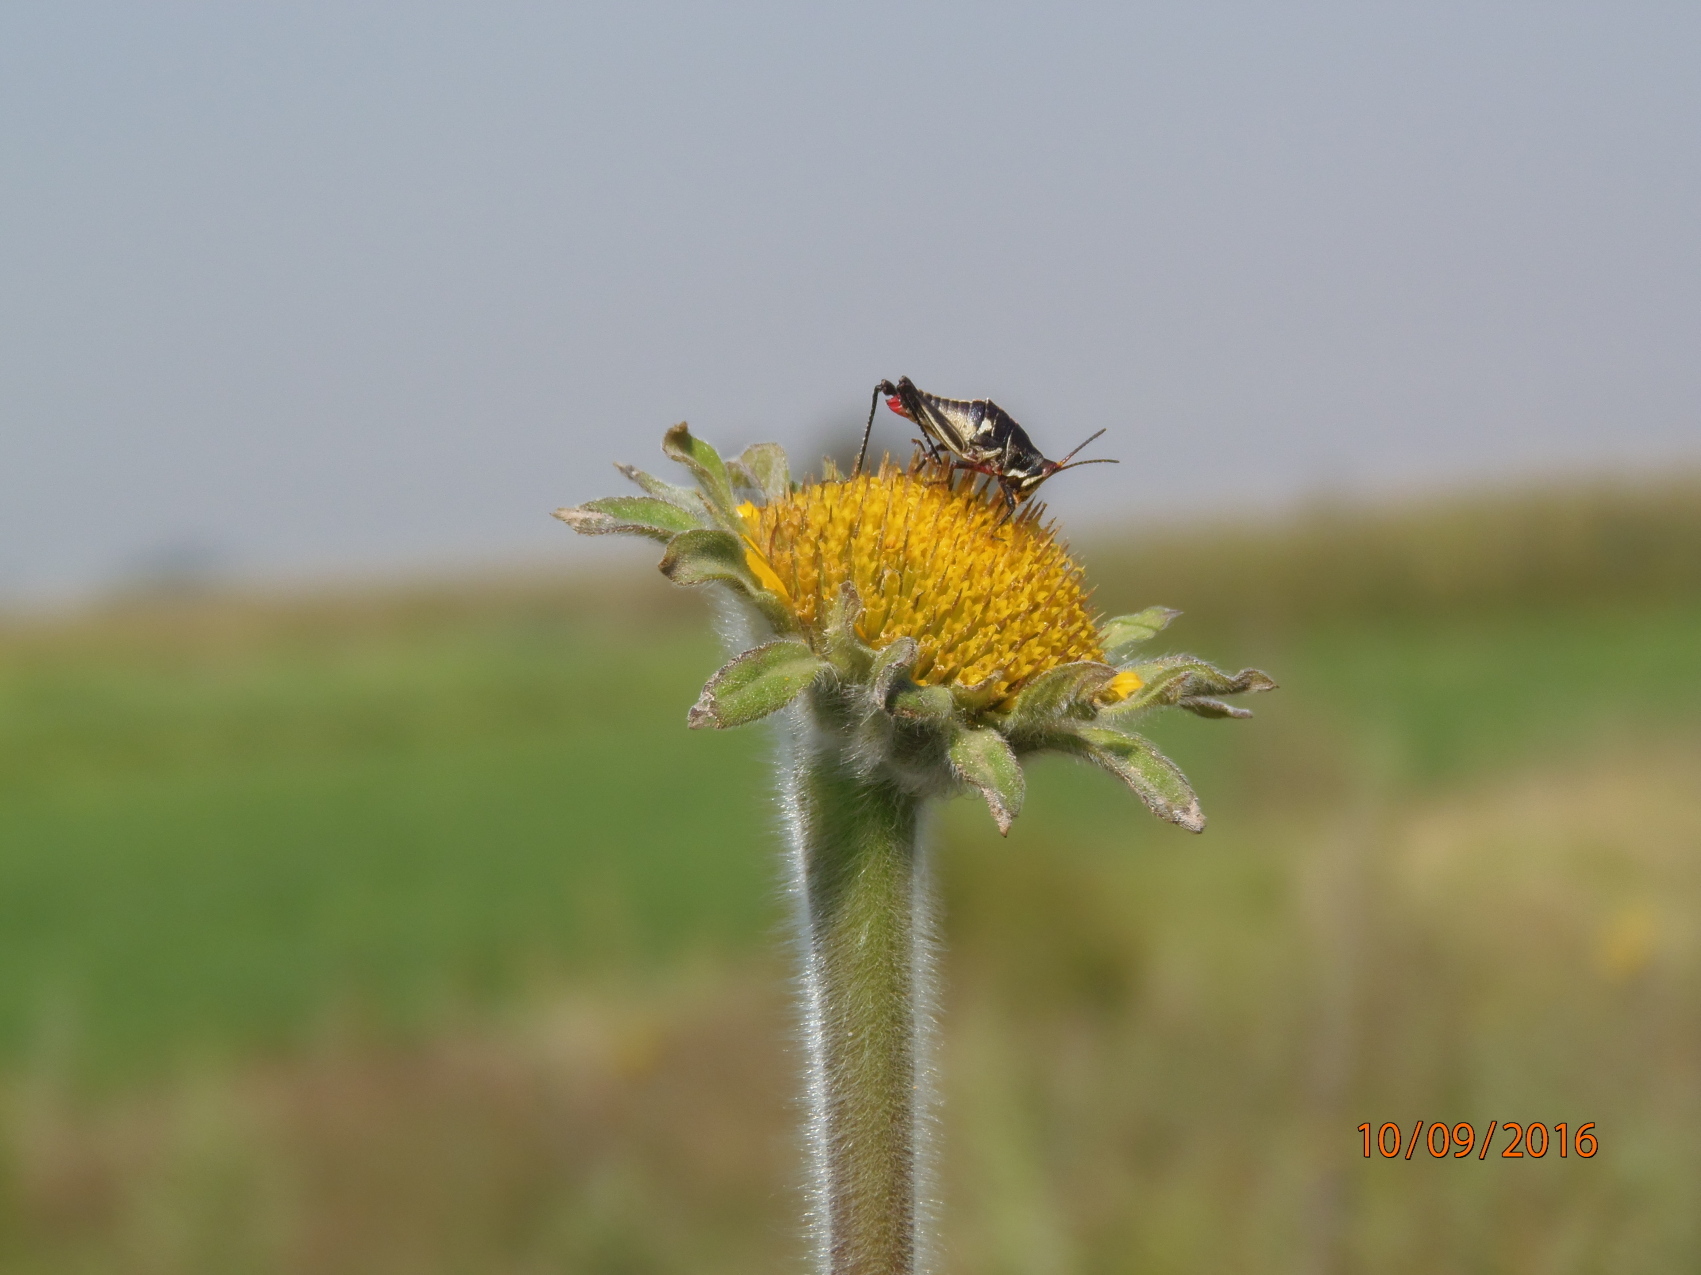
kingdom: Animalia
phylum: Arthropoda
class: Insecta
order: Orthoptera
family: Pyrgomorphidae
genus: Sphenarium
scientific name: Sphenarium purpurascens
